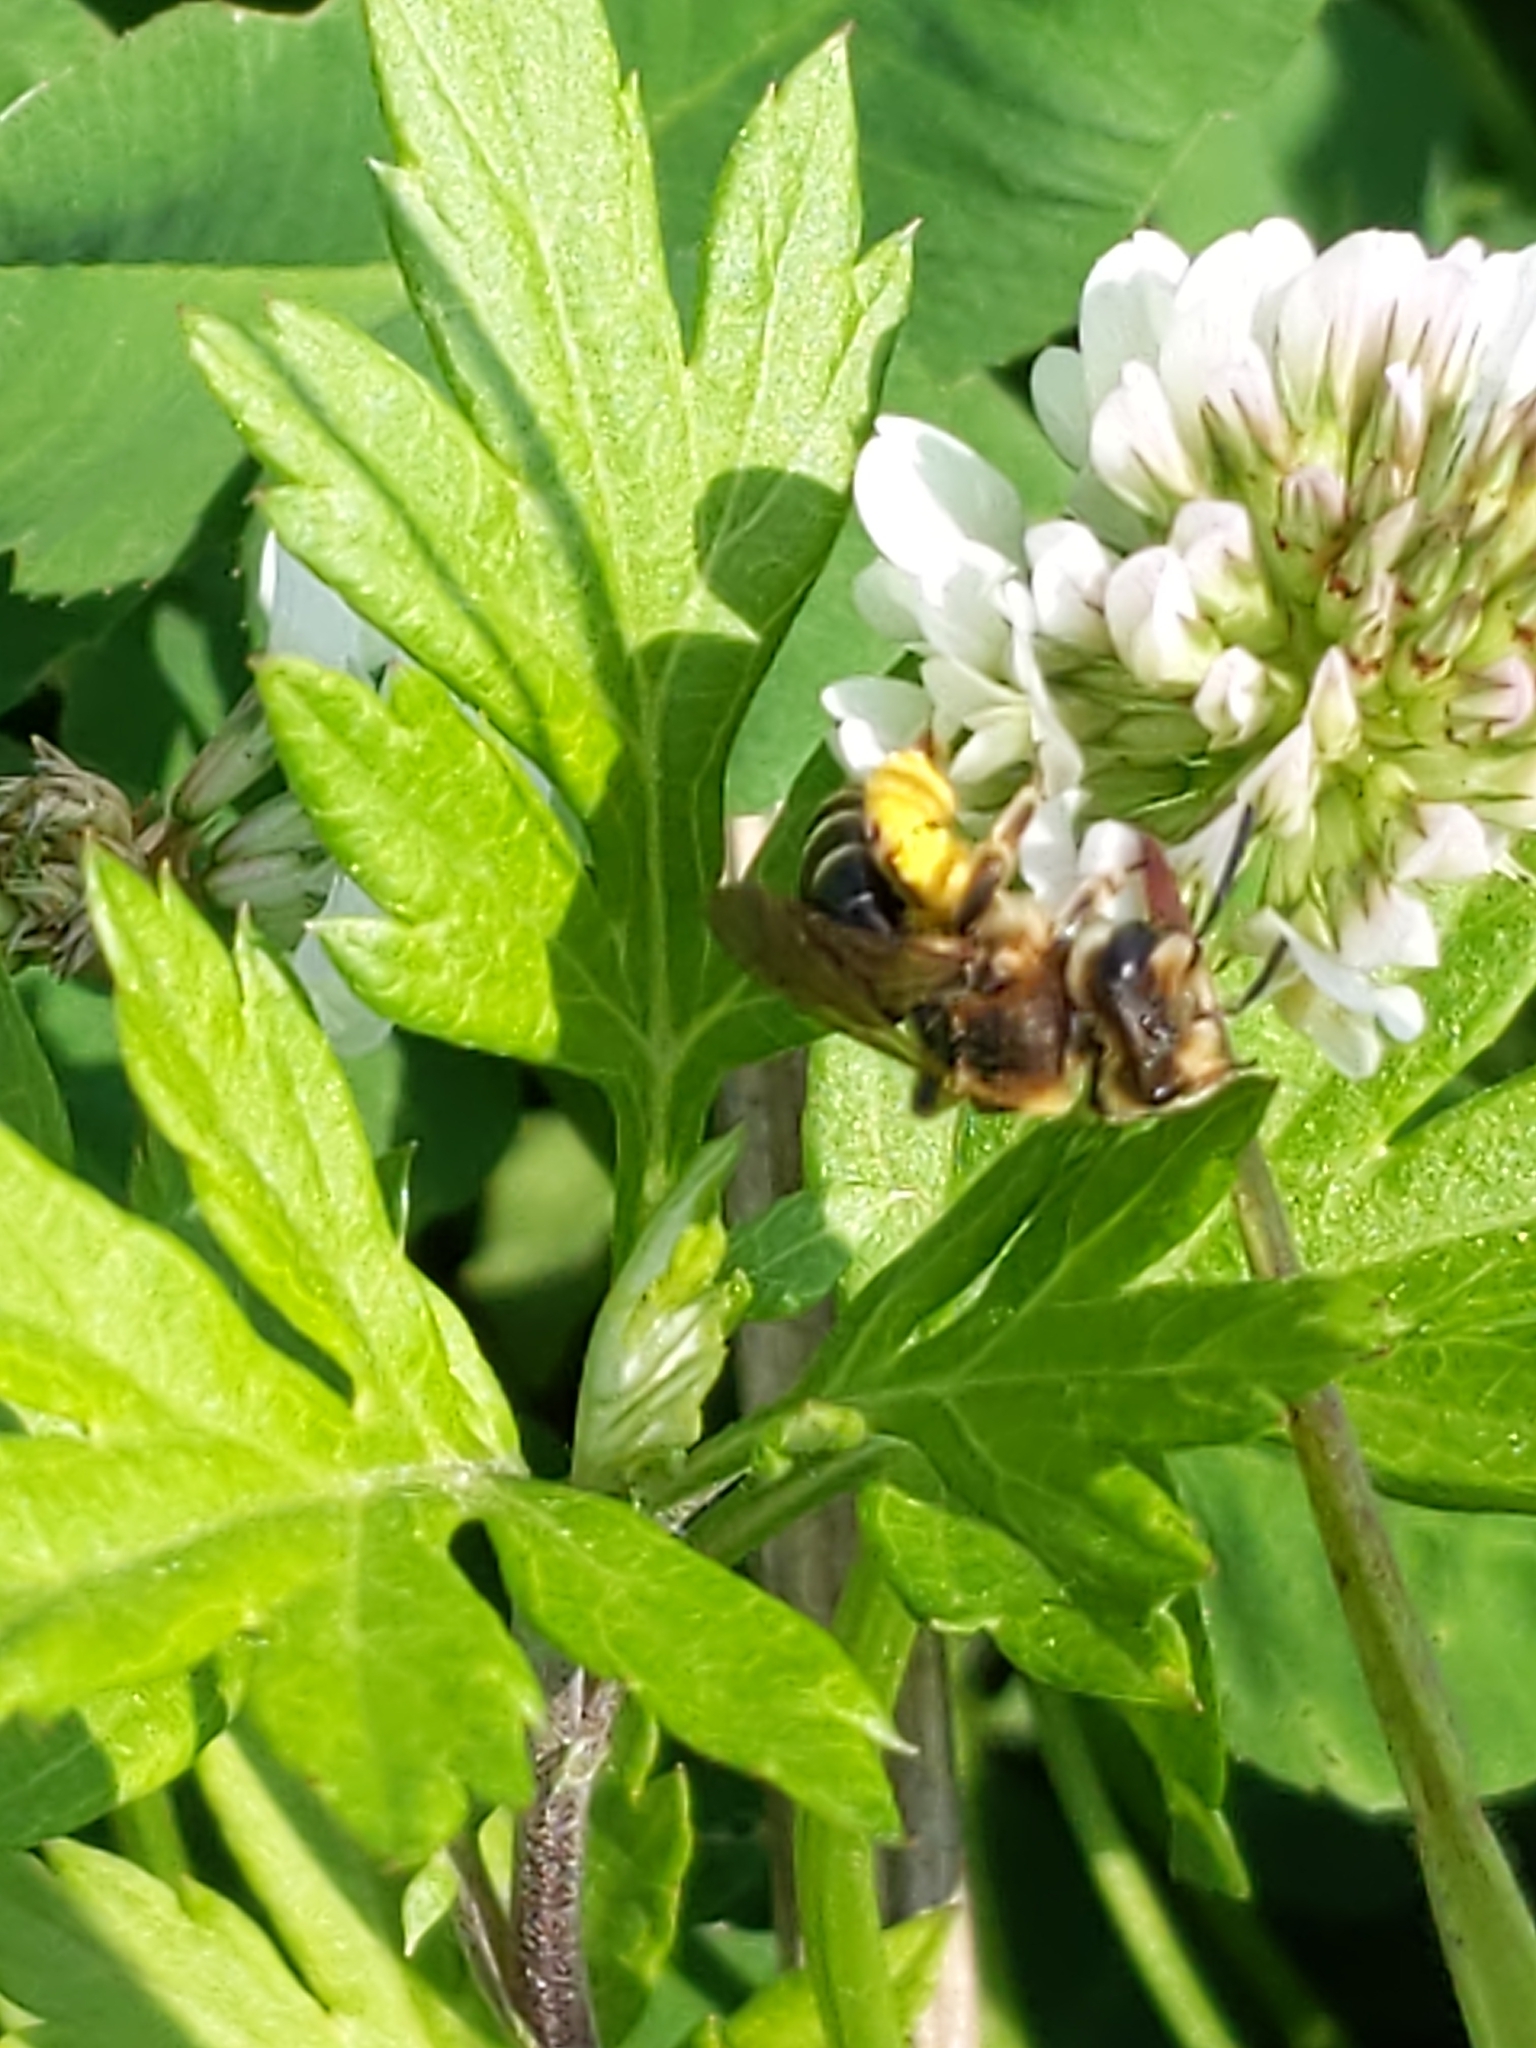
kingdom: Animalia
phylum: Arthropoda
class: Insecta
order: Hymenoptera
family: Andrenidae
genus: Andrena
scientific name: Andrena wilkella
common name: Wilke's mining bee
